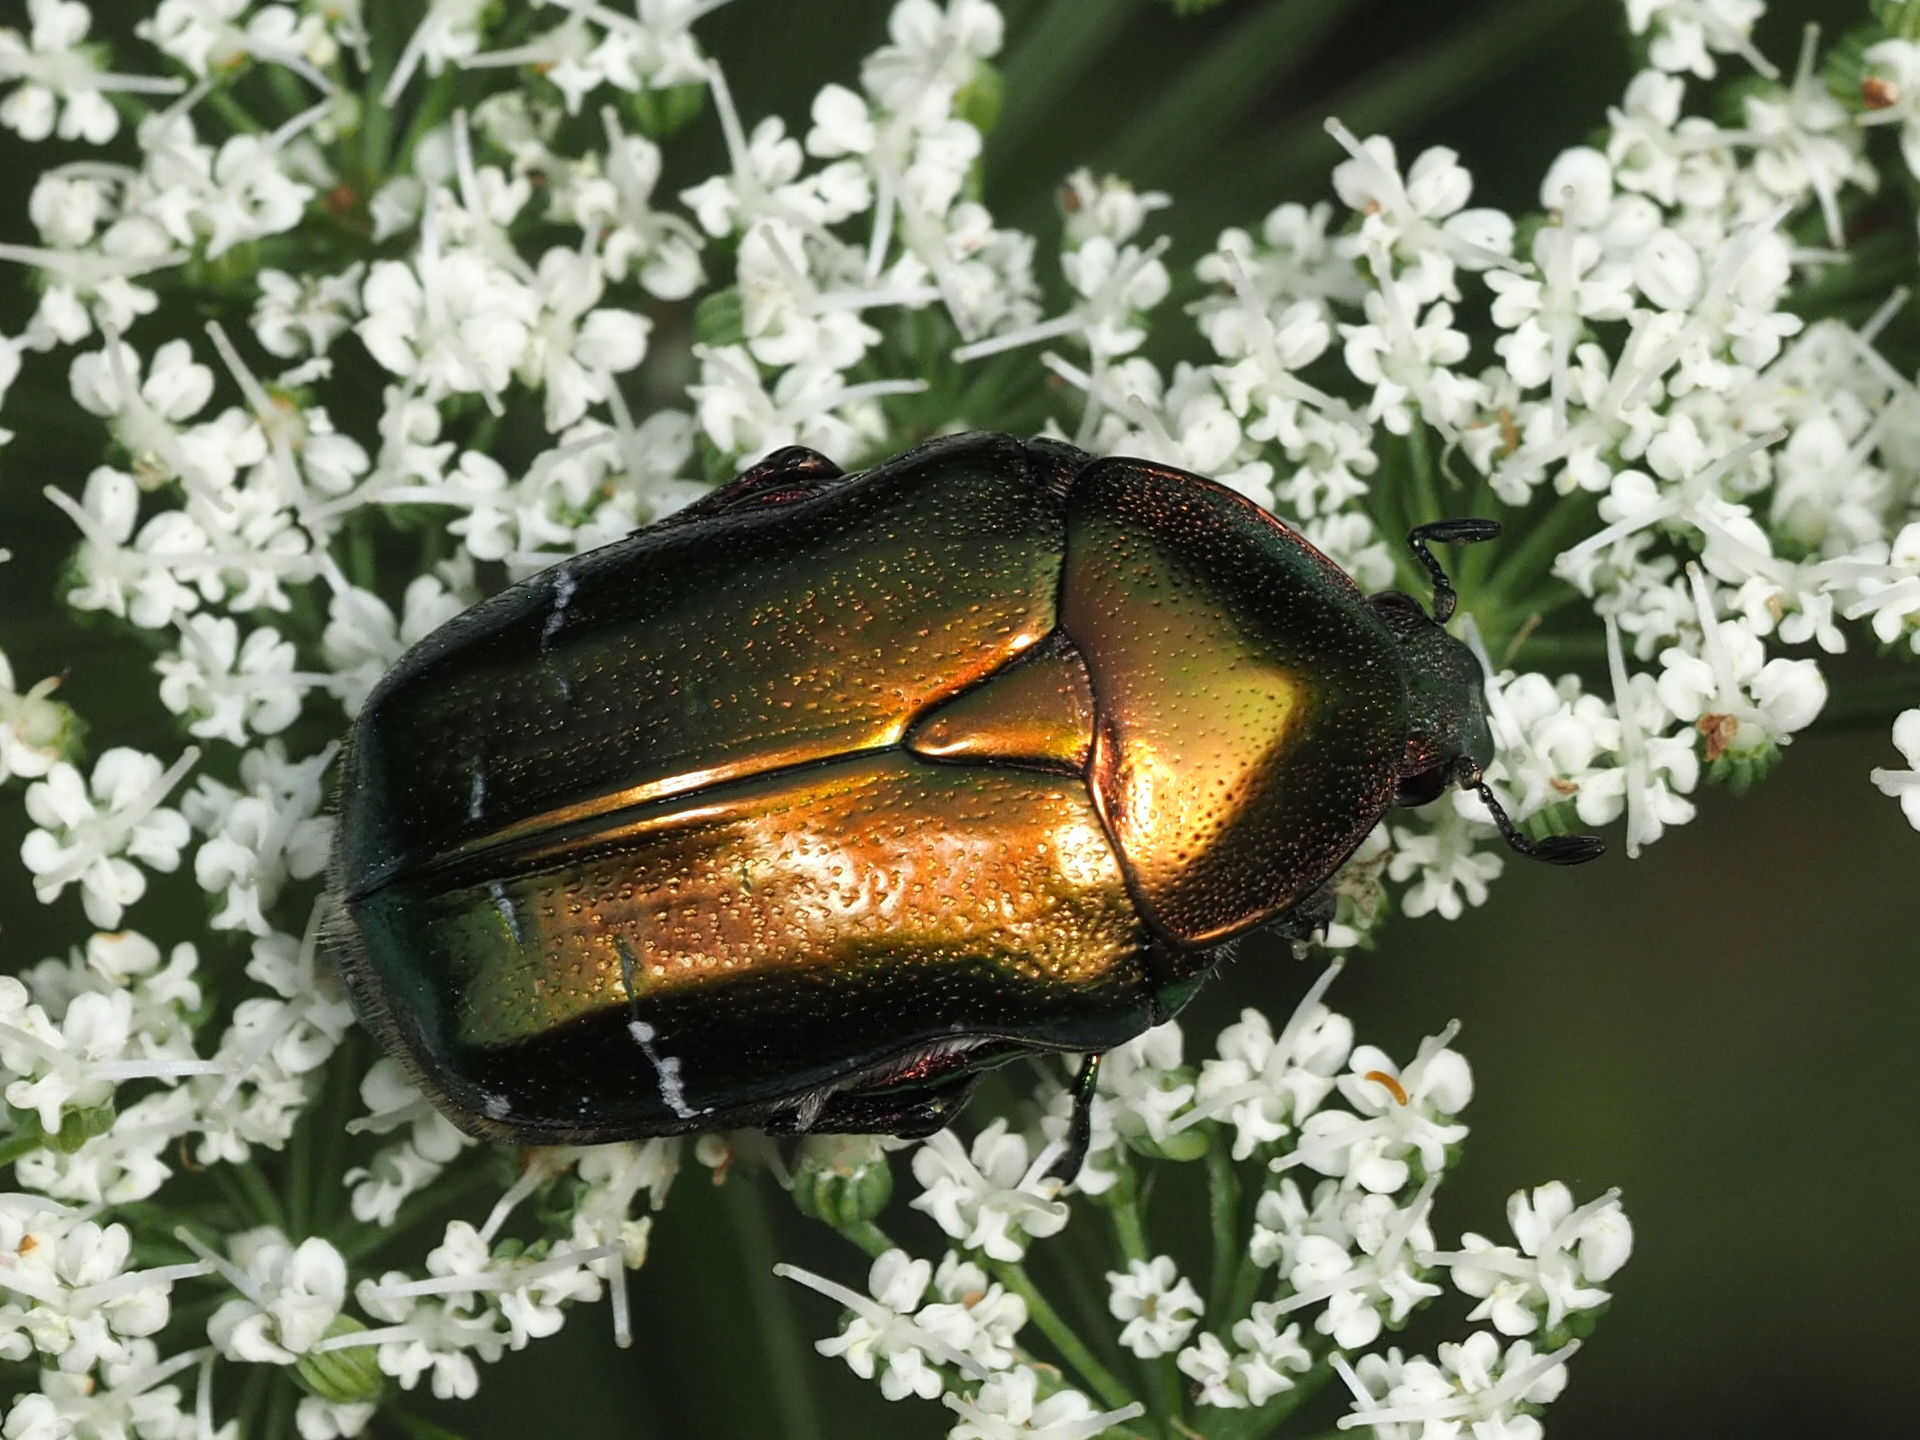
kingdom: Animalia
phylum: Arthropoda
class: Insecta
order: Coleoptera
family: Scarabaeidae
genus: Cetonia
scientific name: Cetonia aurata
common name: Rose chafer
